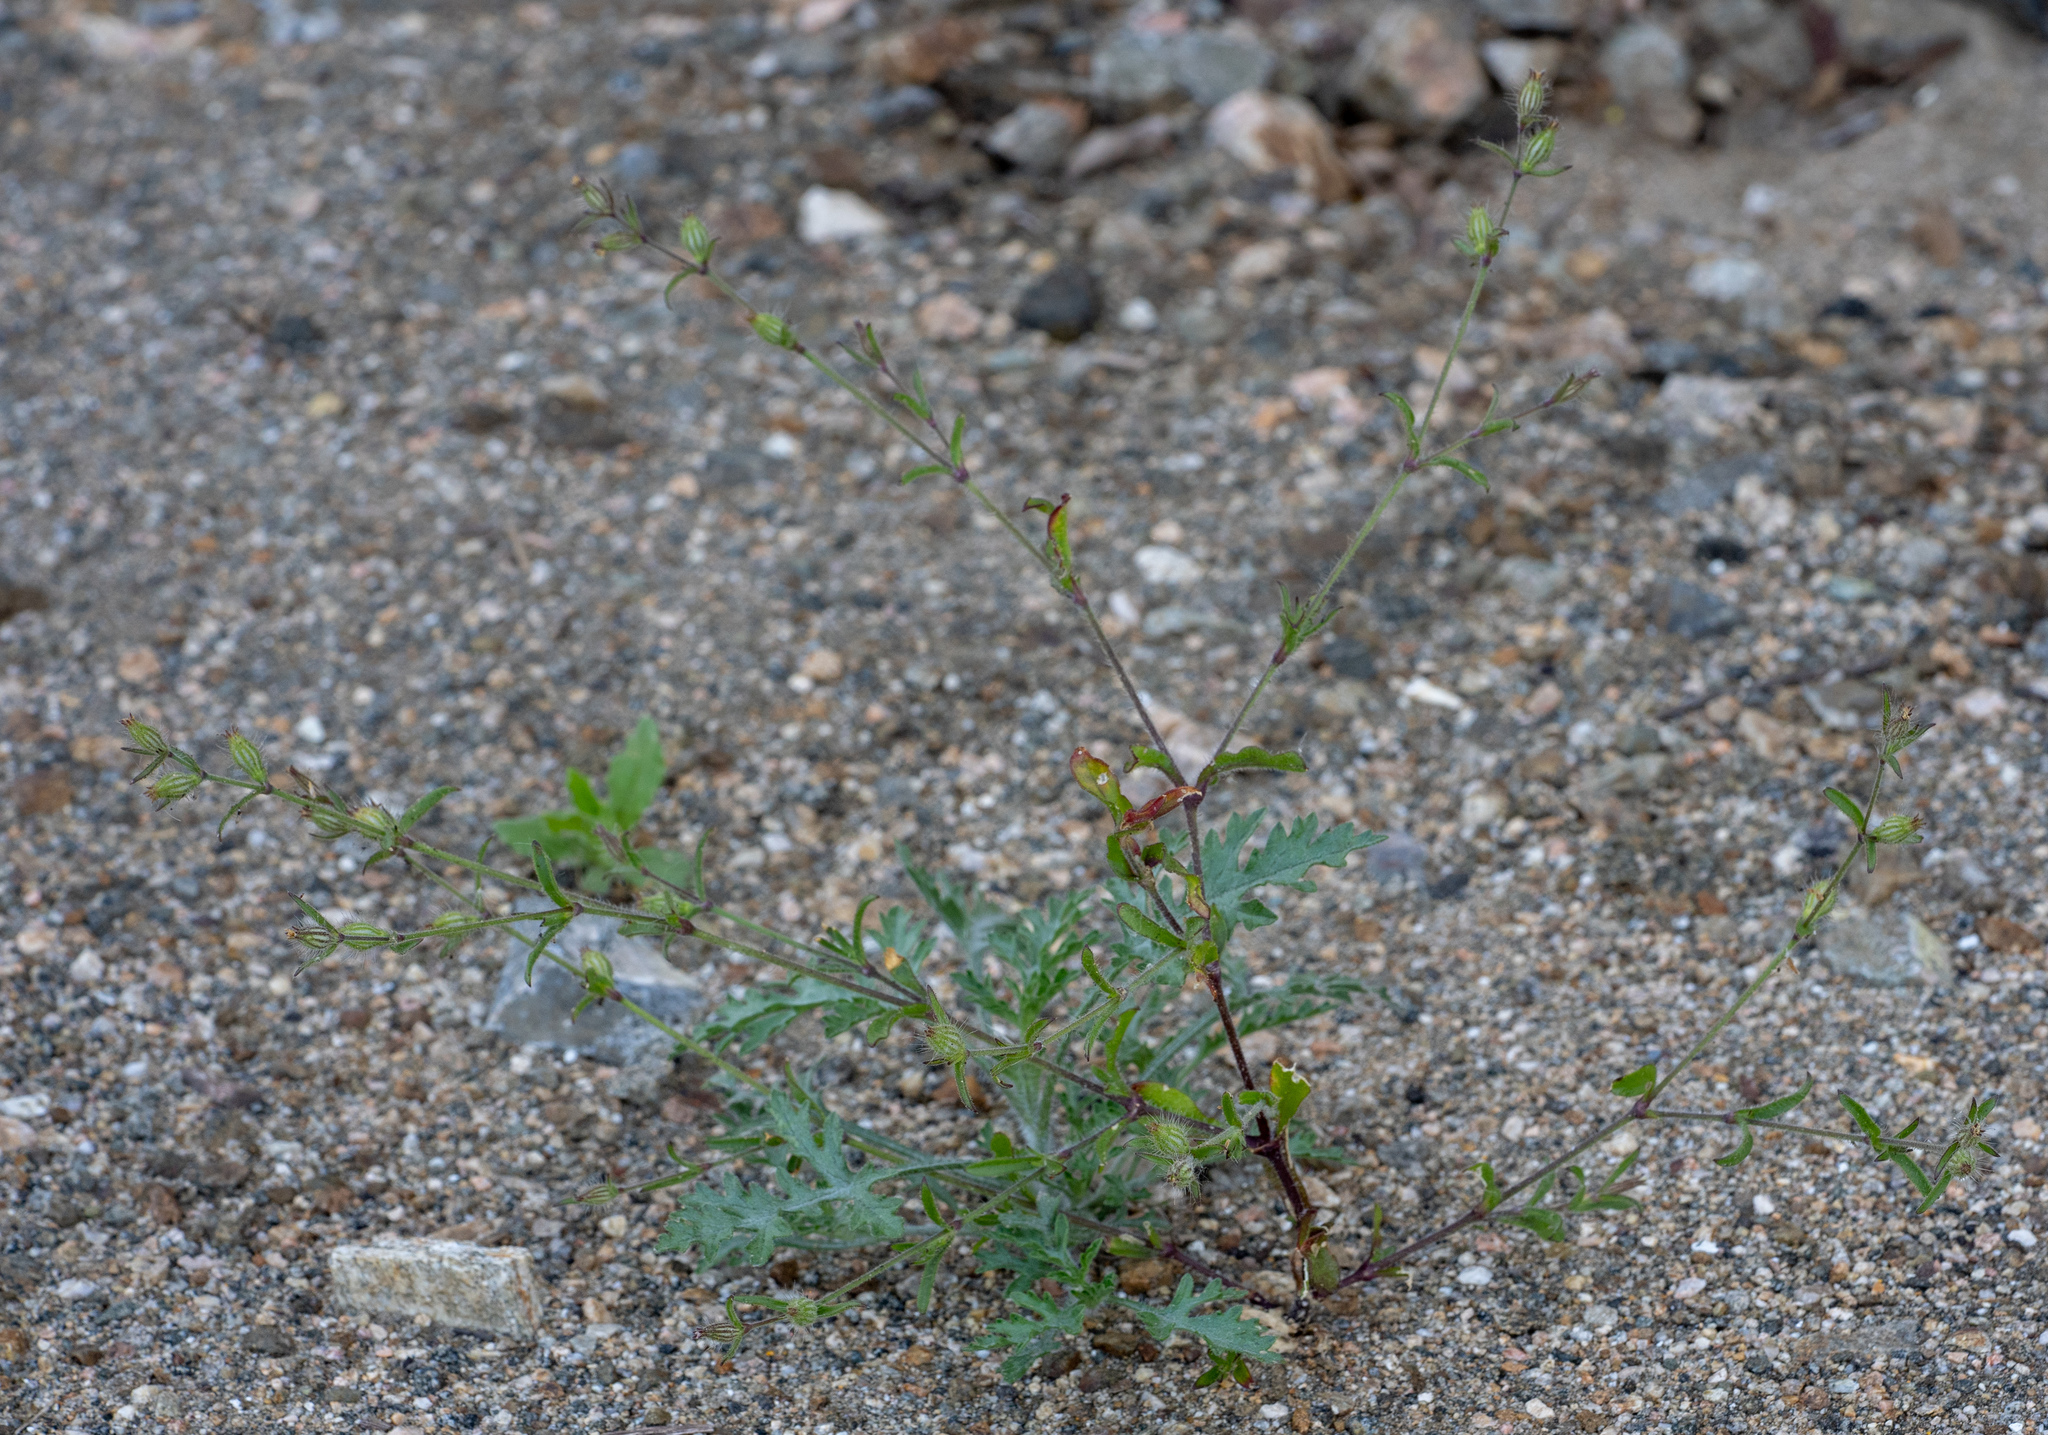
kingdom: Plantae
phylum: Tracheophyta
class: Magnoliopsida
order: Caryophyllales
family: Caryophyllaceae
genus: Silene
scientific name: Silene gallica
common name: Small-flowered catchfly
